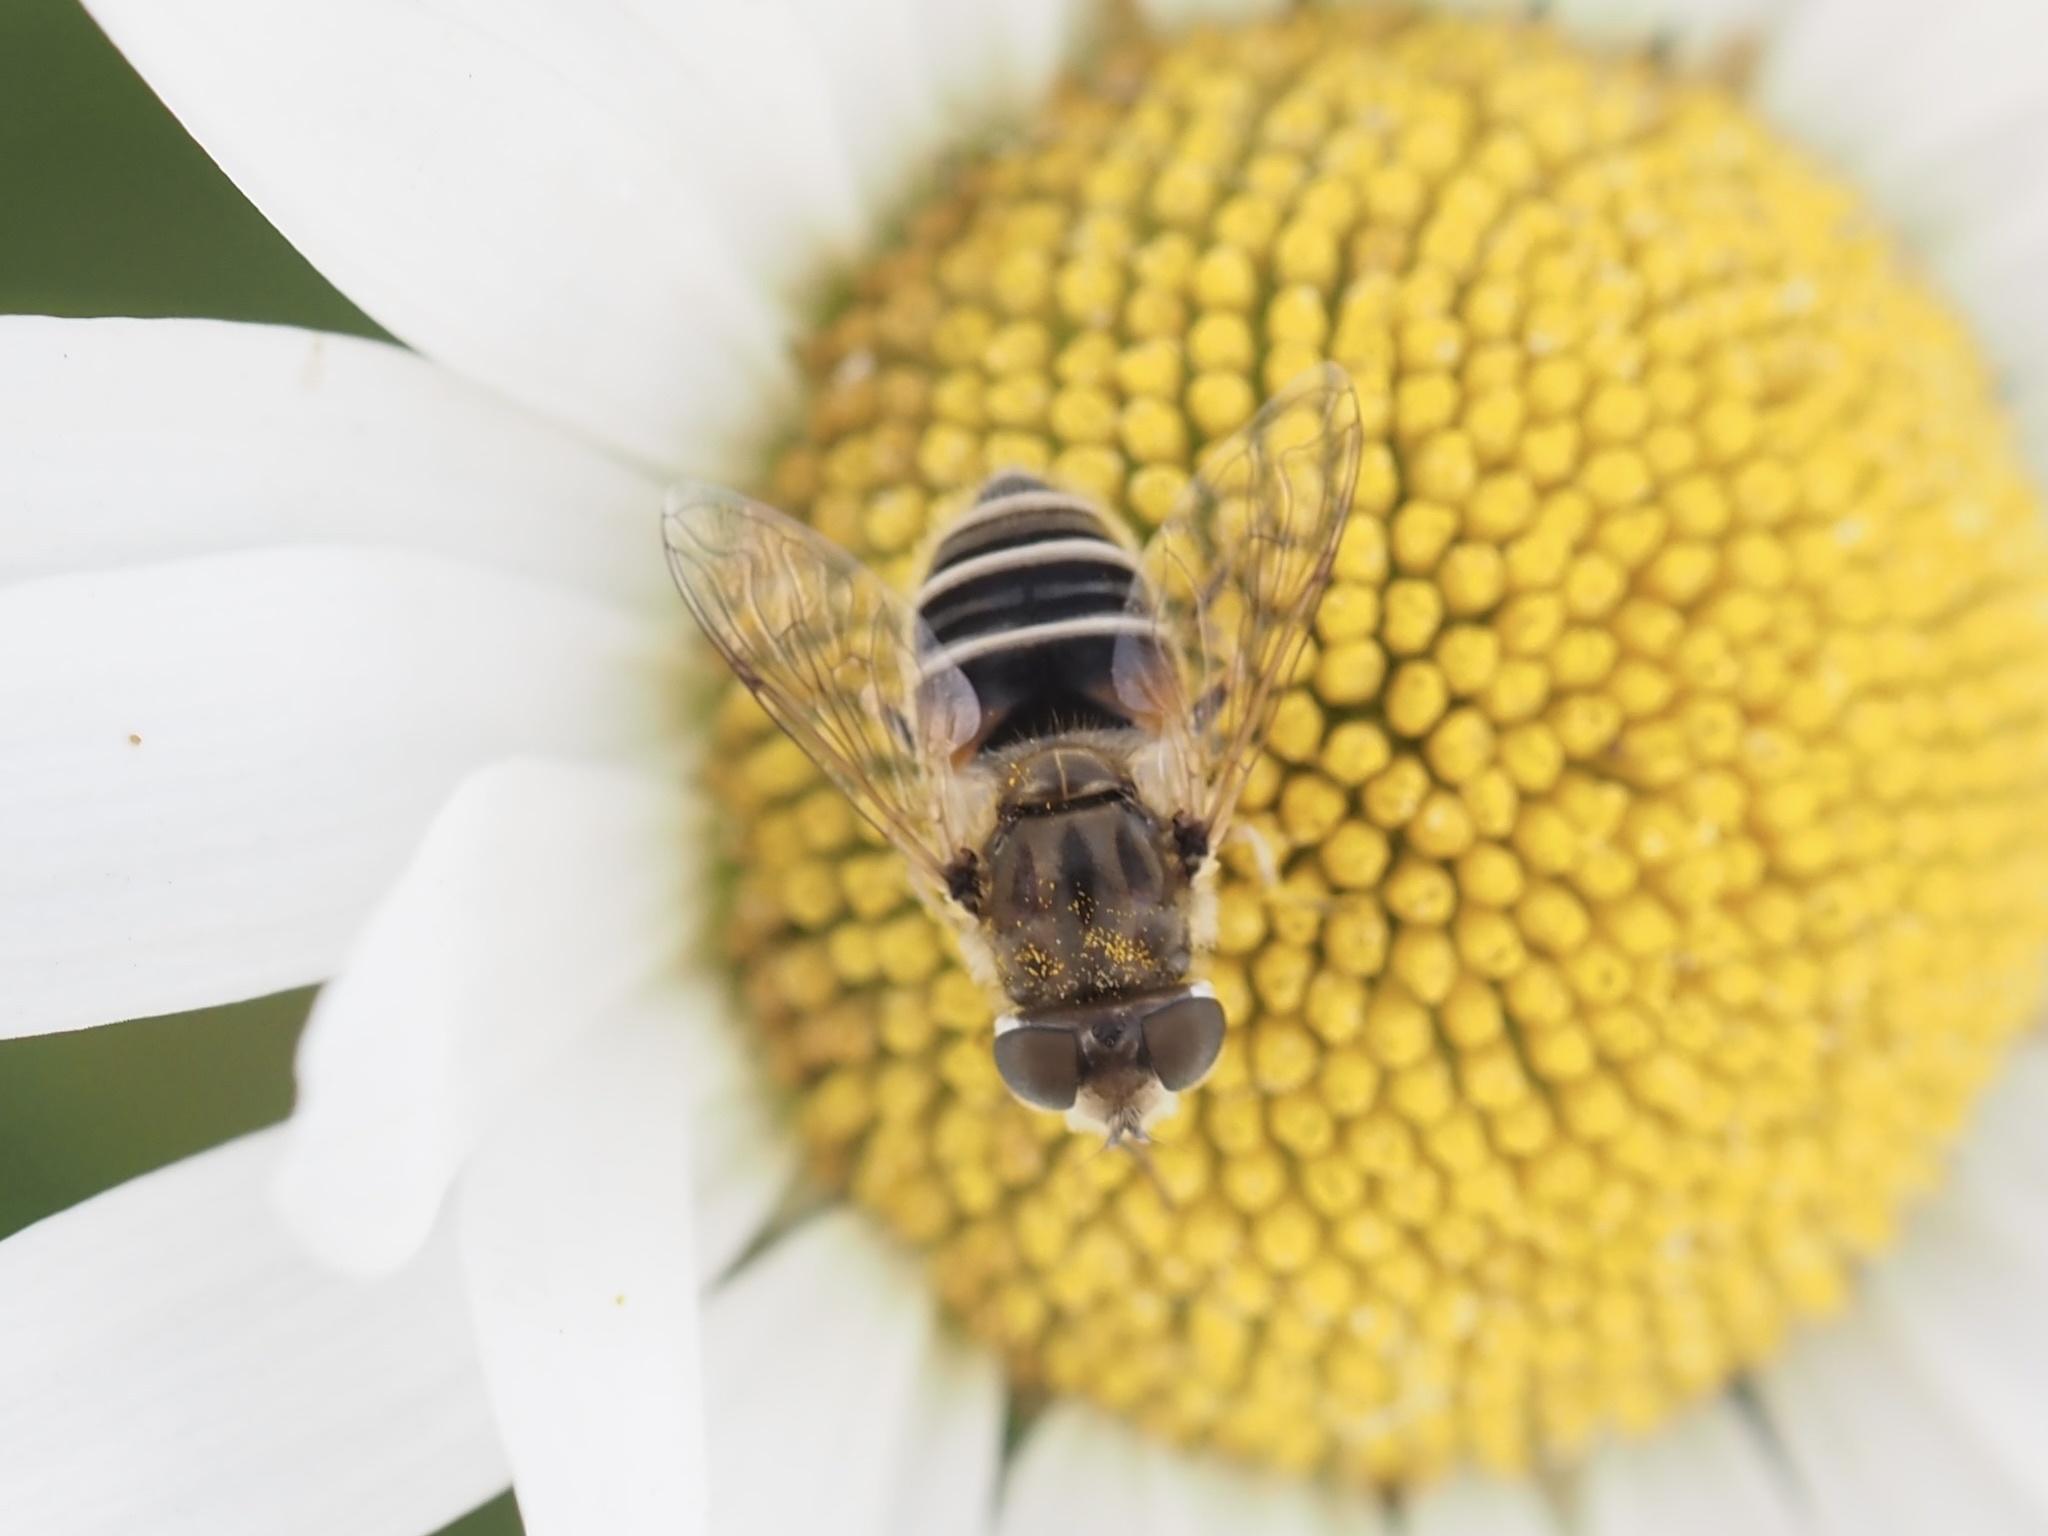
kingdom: Animalia
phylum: Arthropoda
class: Insecta
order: Diptera
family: Syrphidae
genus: Eristalis
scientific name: Eristalis arbustorum
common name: Hover fly
